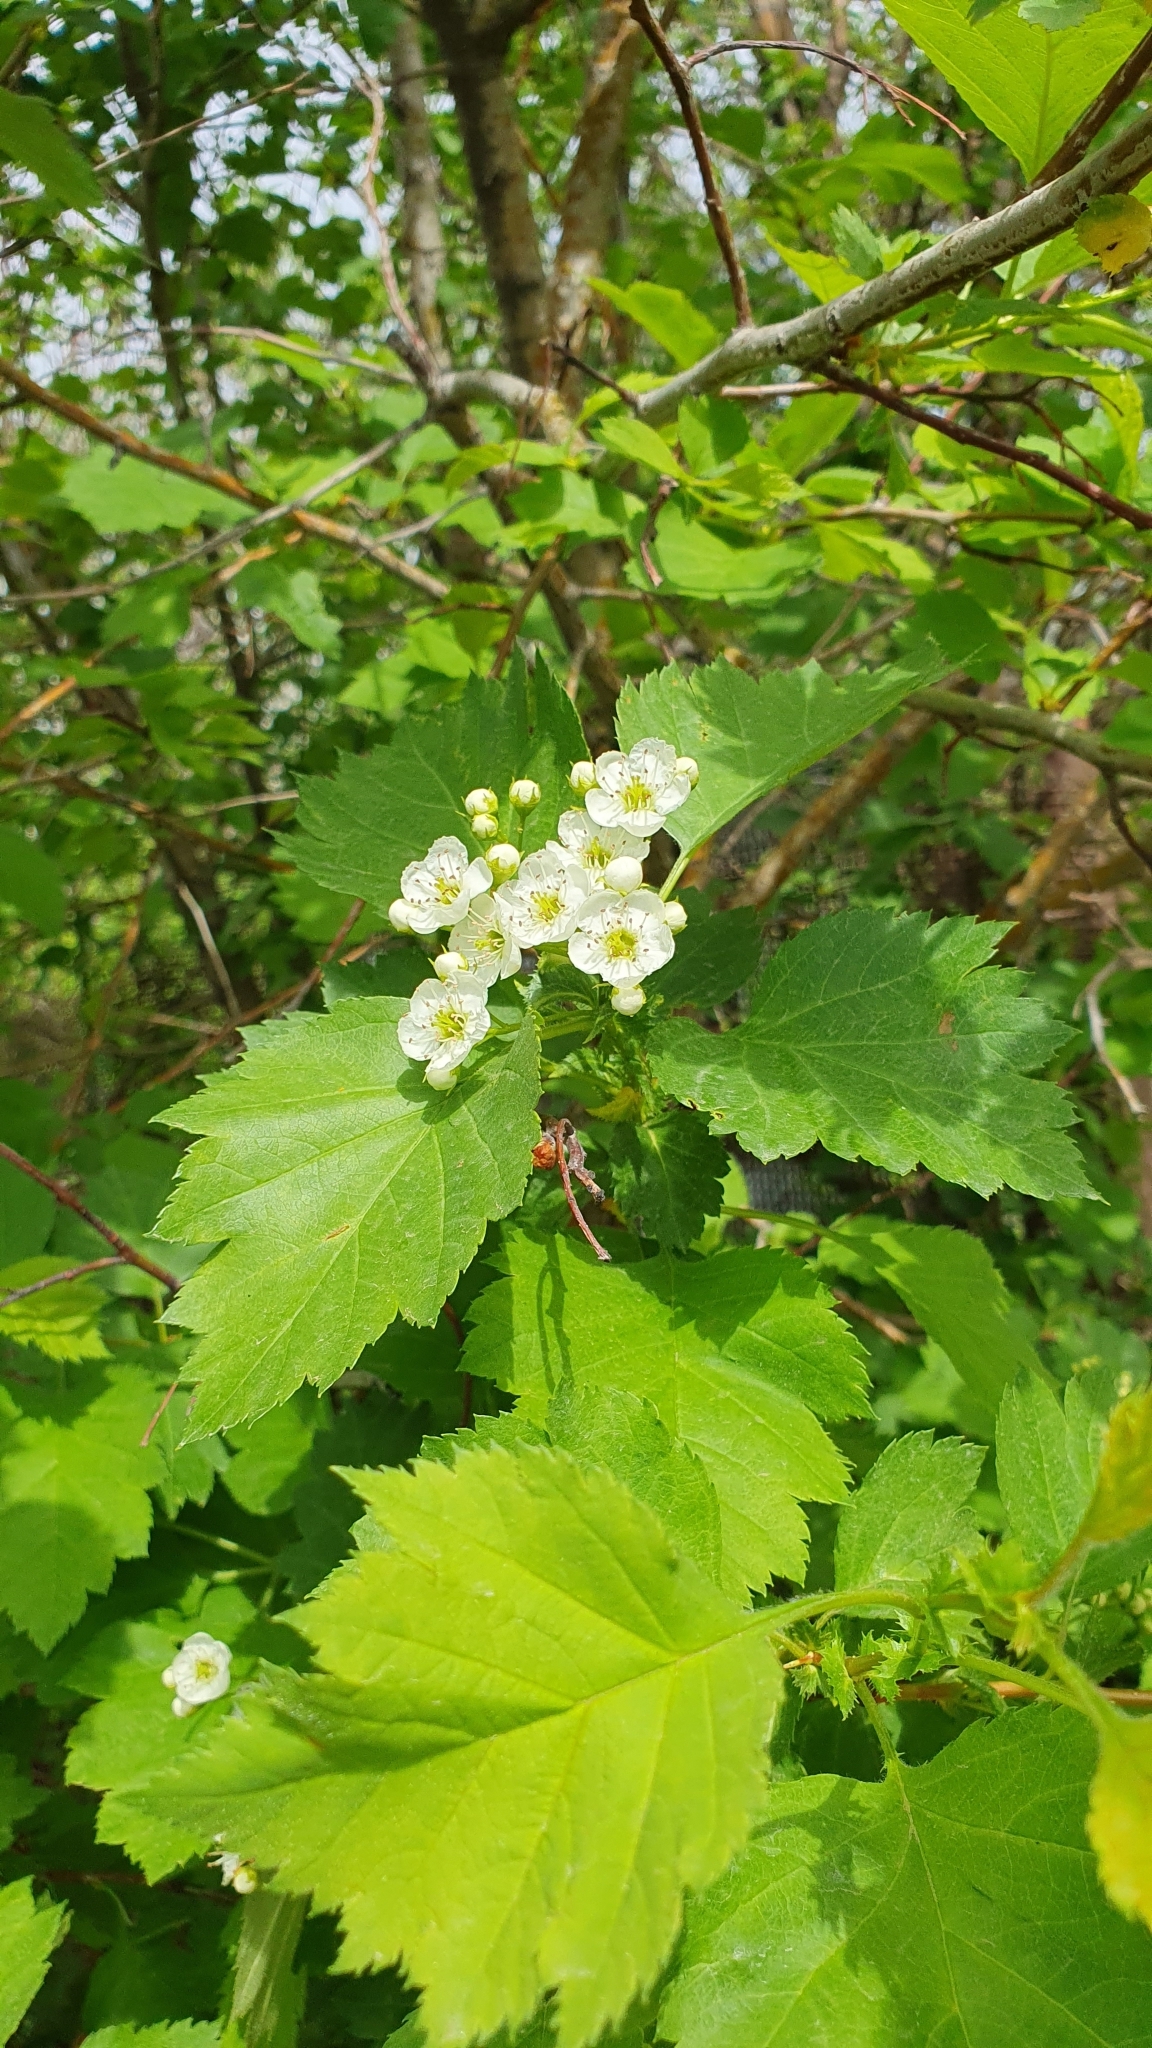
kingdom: Plantae
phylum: Tracheophyta
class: Magnoliopsida
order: Rosales
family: Rosaceae
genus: Crataegus
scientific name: Crataegus sanguinea
